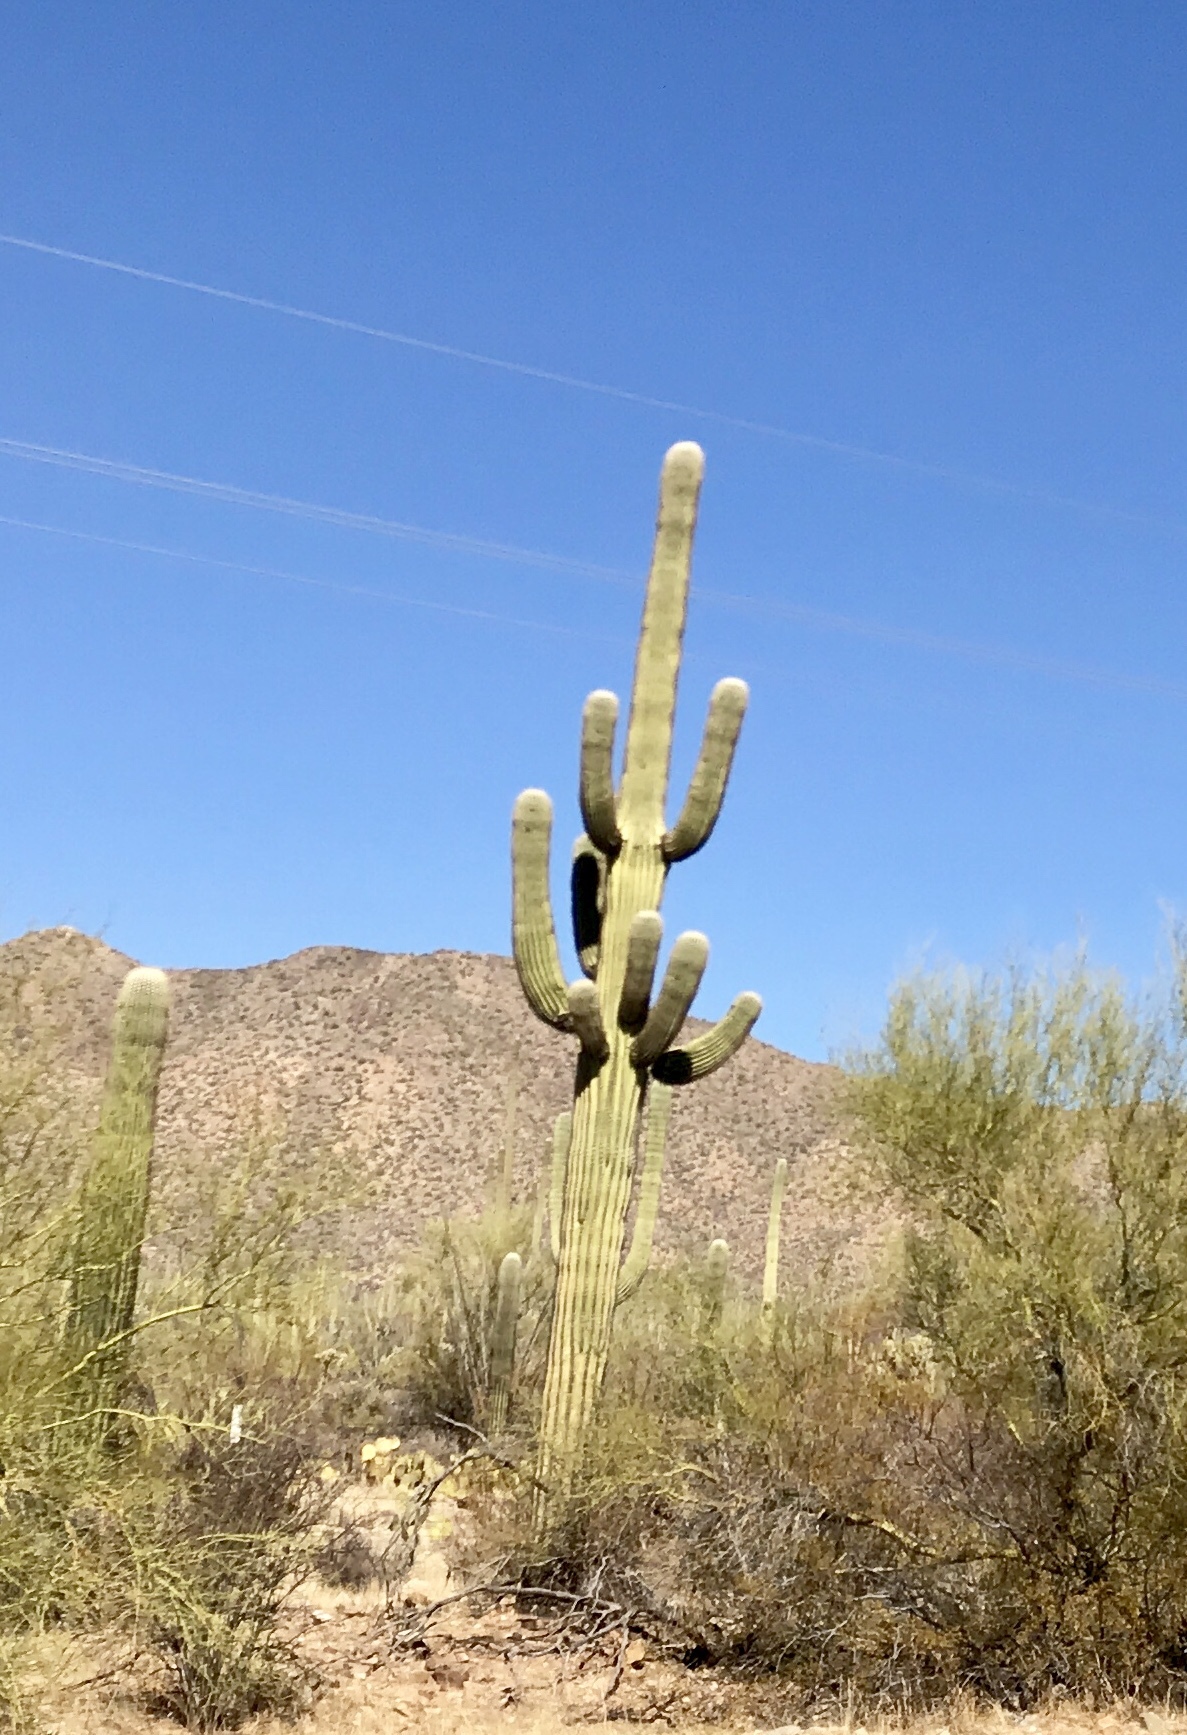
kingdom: Plantae
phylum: Tracheophyta
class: Magnoliopsida
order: Caryophyllales
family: Cactaceae
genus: Carnegiea
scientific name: Carnegiea gigantea
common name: Saguaro
